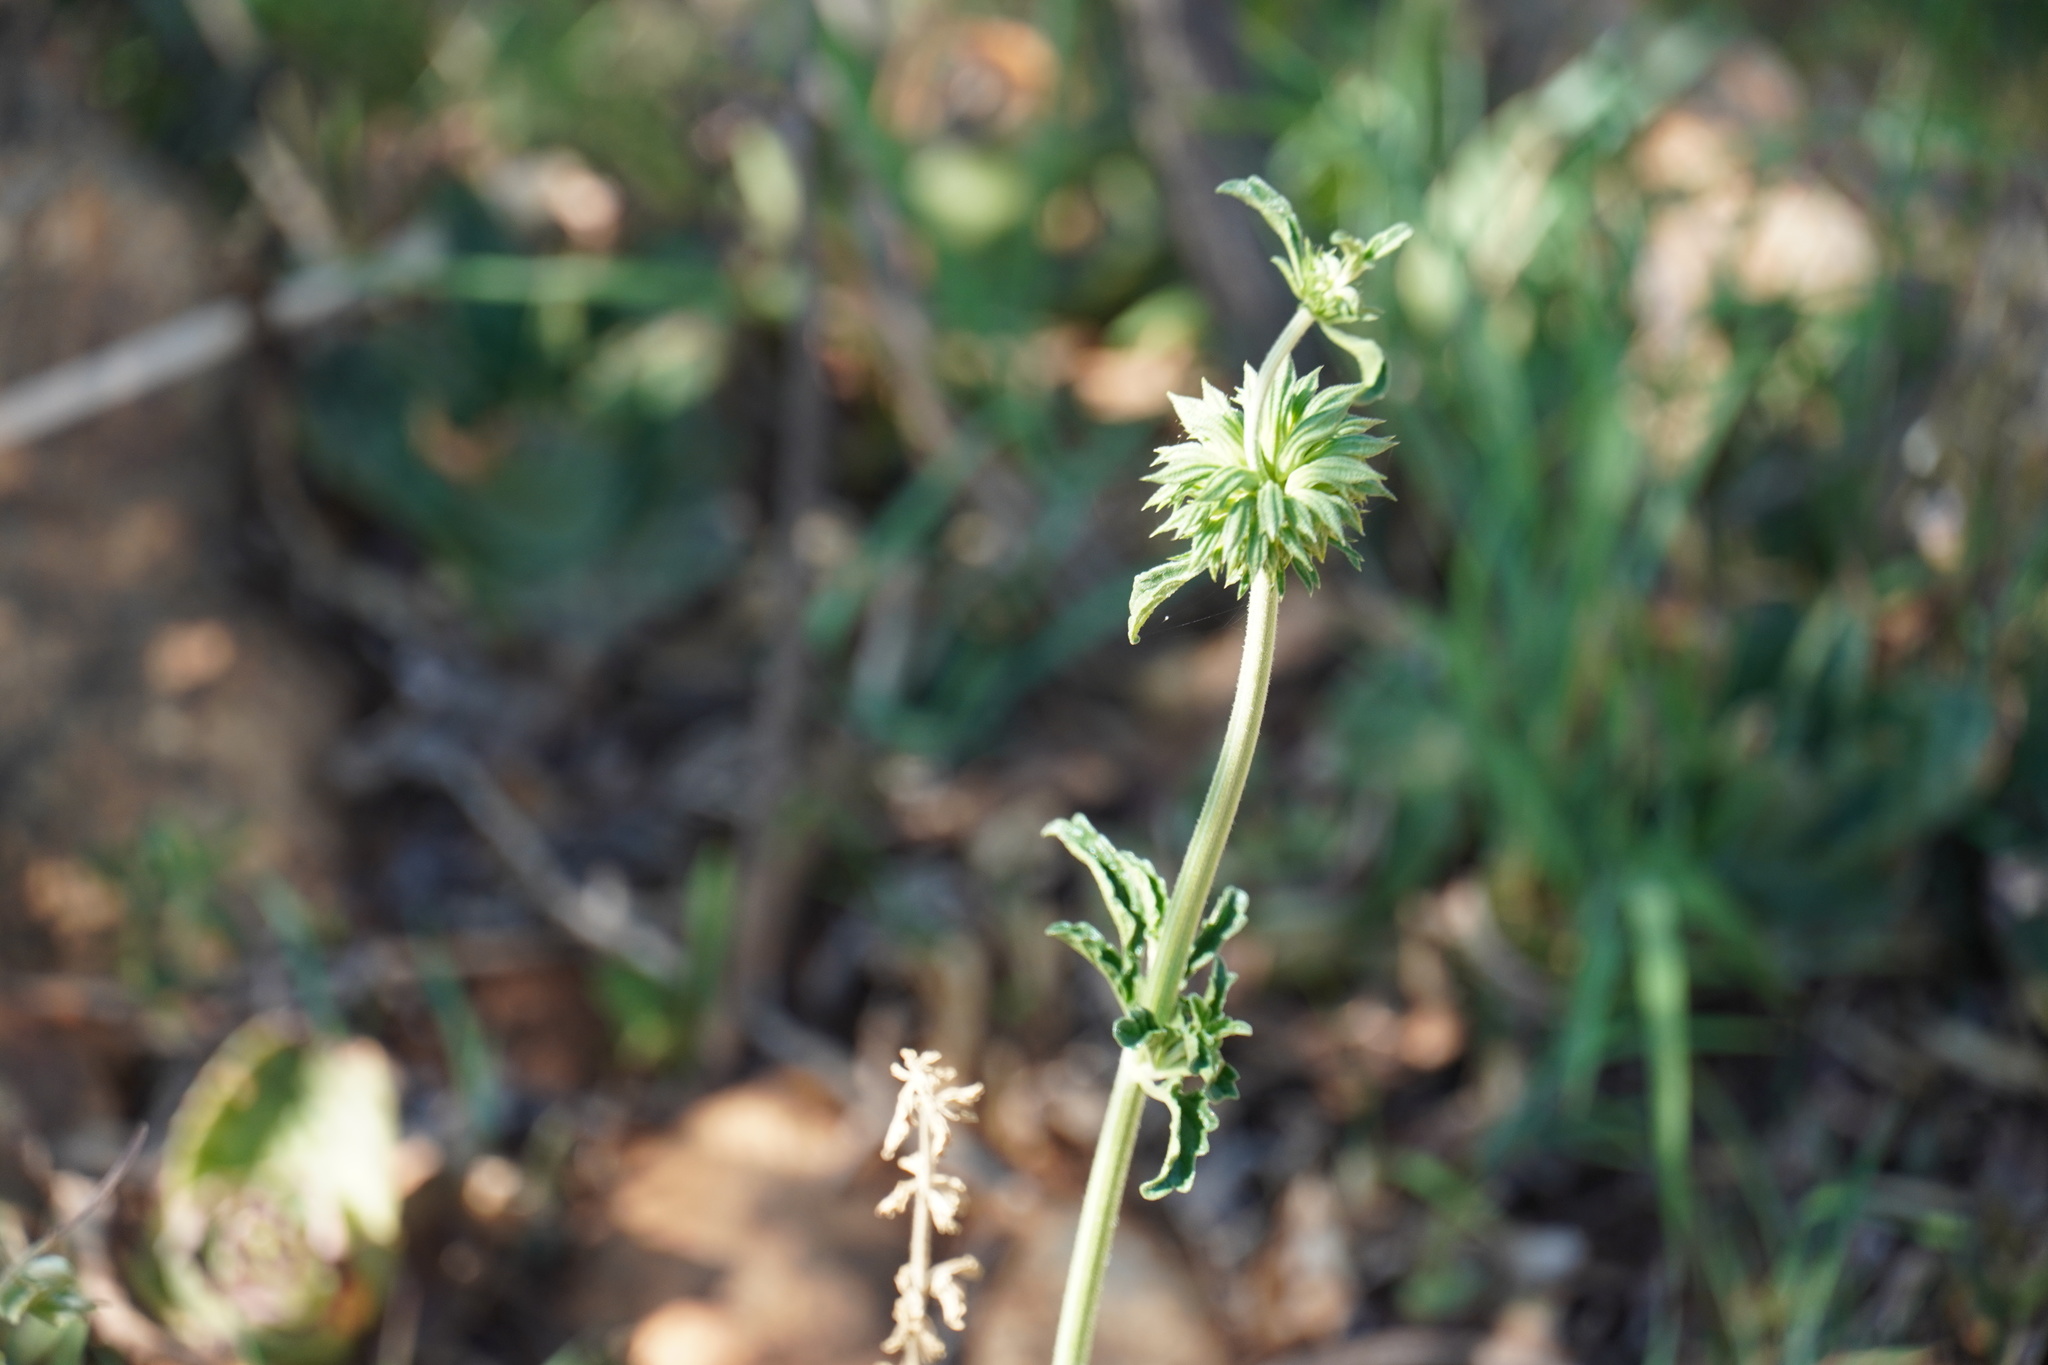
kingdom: Plantae
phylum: Tracheophyta
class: Magnoliopsida
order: Lamiales
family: Lamiaceae
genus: Leonotis
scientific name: Leonotis ocymifolia
